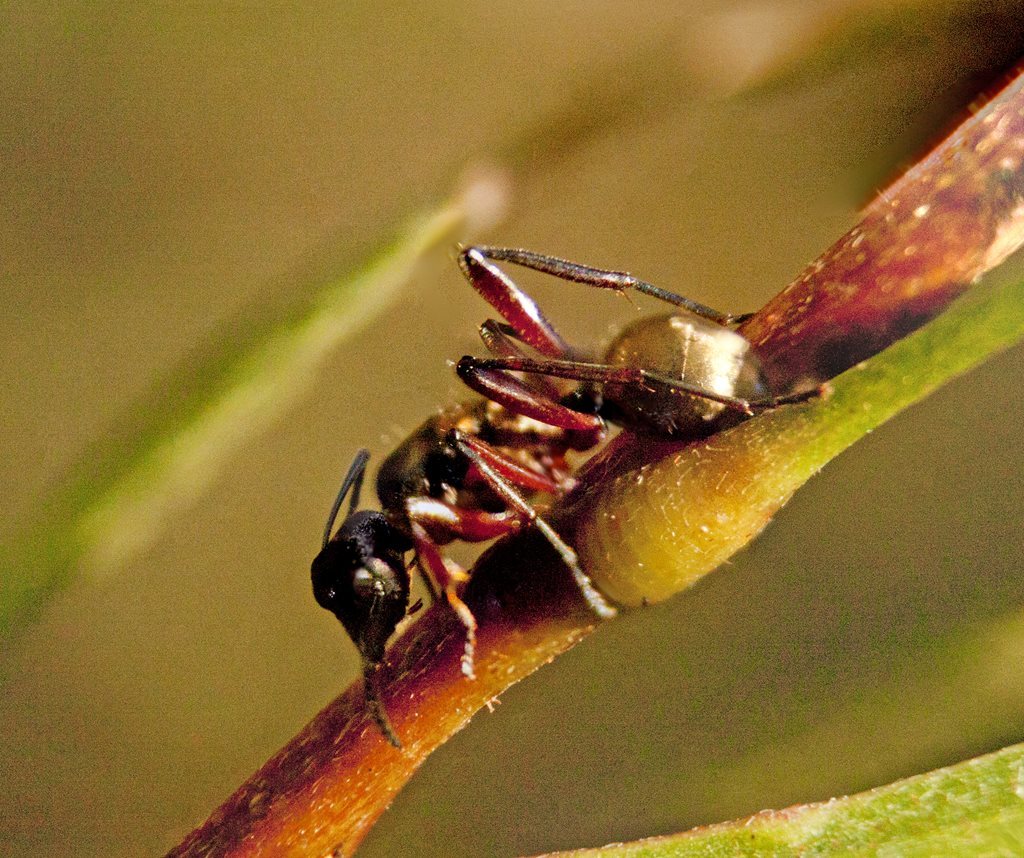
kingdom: Animalia
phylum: Arthropoda
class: Insecta
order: Hymenoptera
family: Formicidae
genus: Polyrhachis
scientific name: Polyrhachis rufifemur
